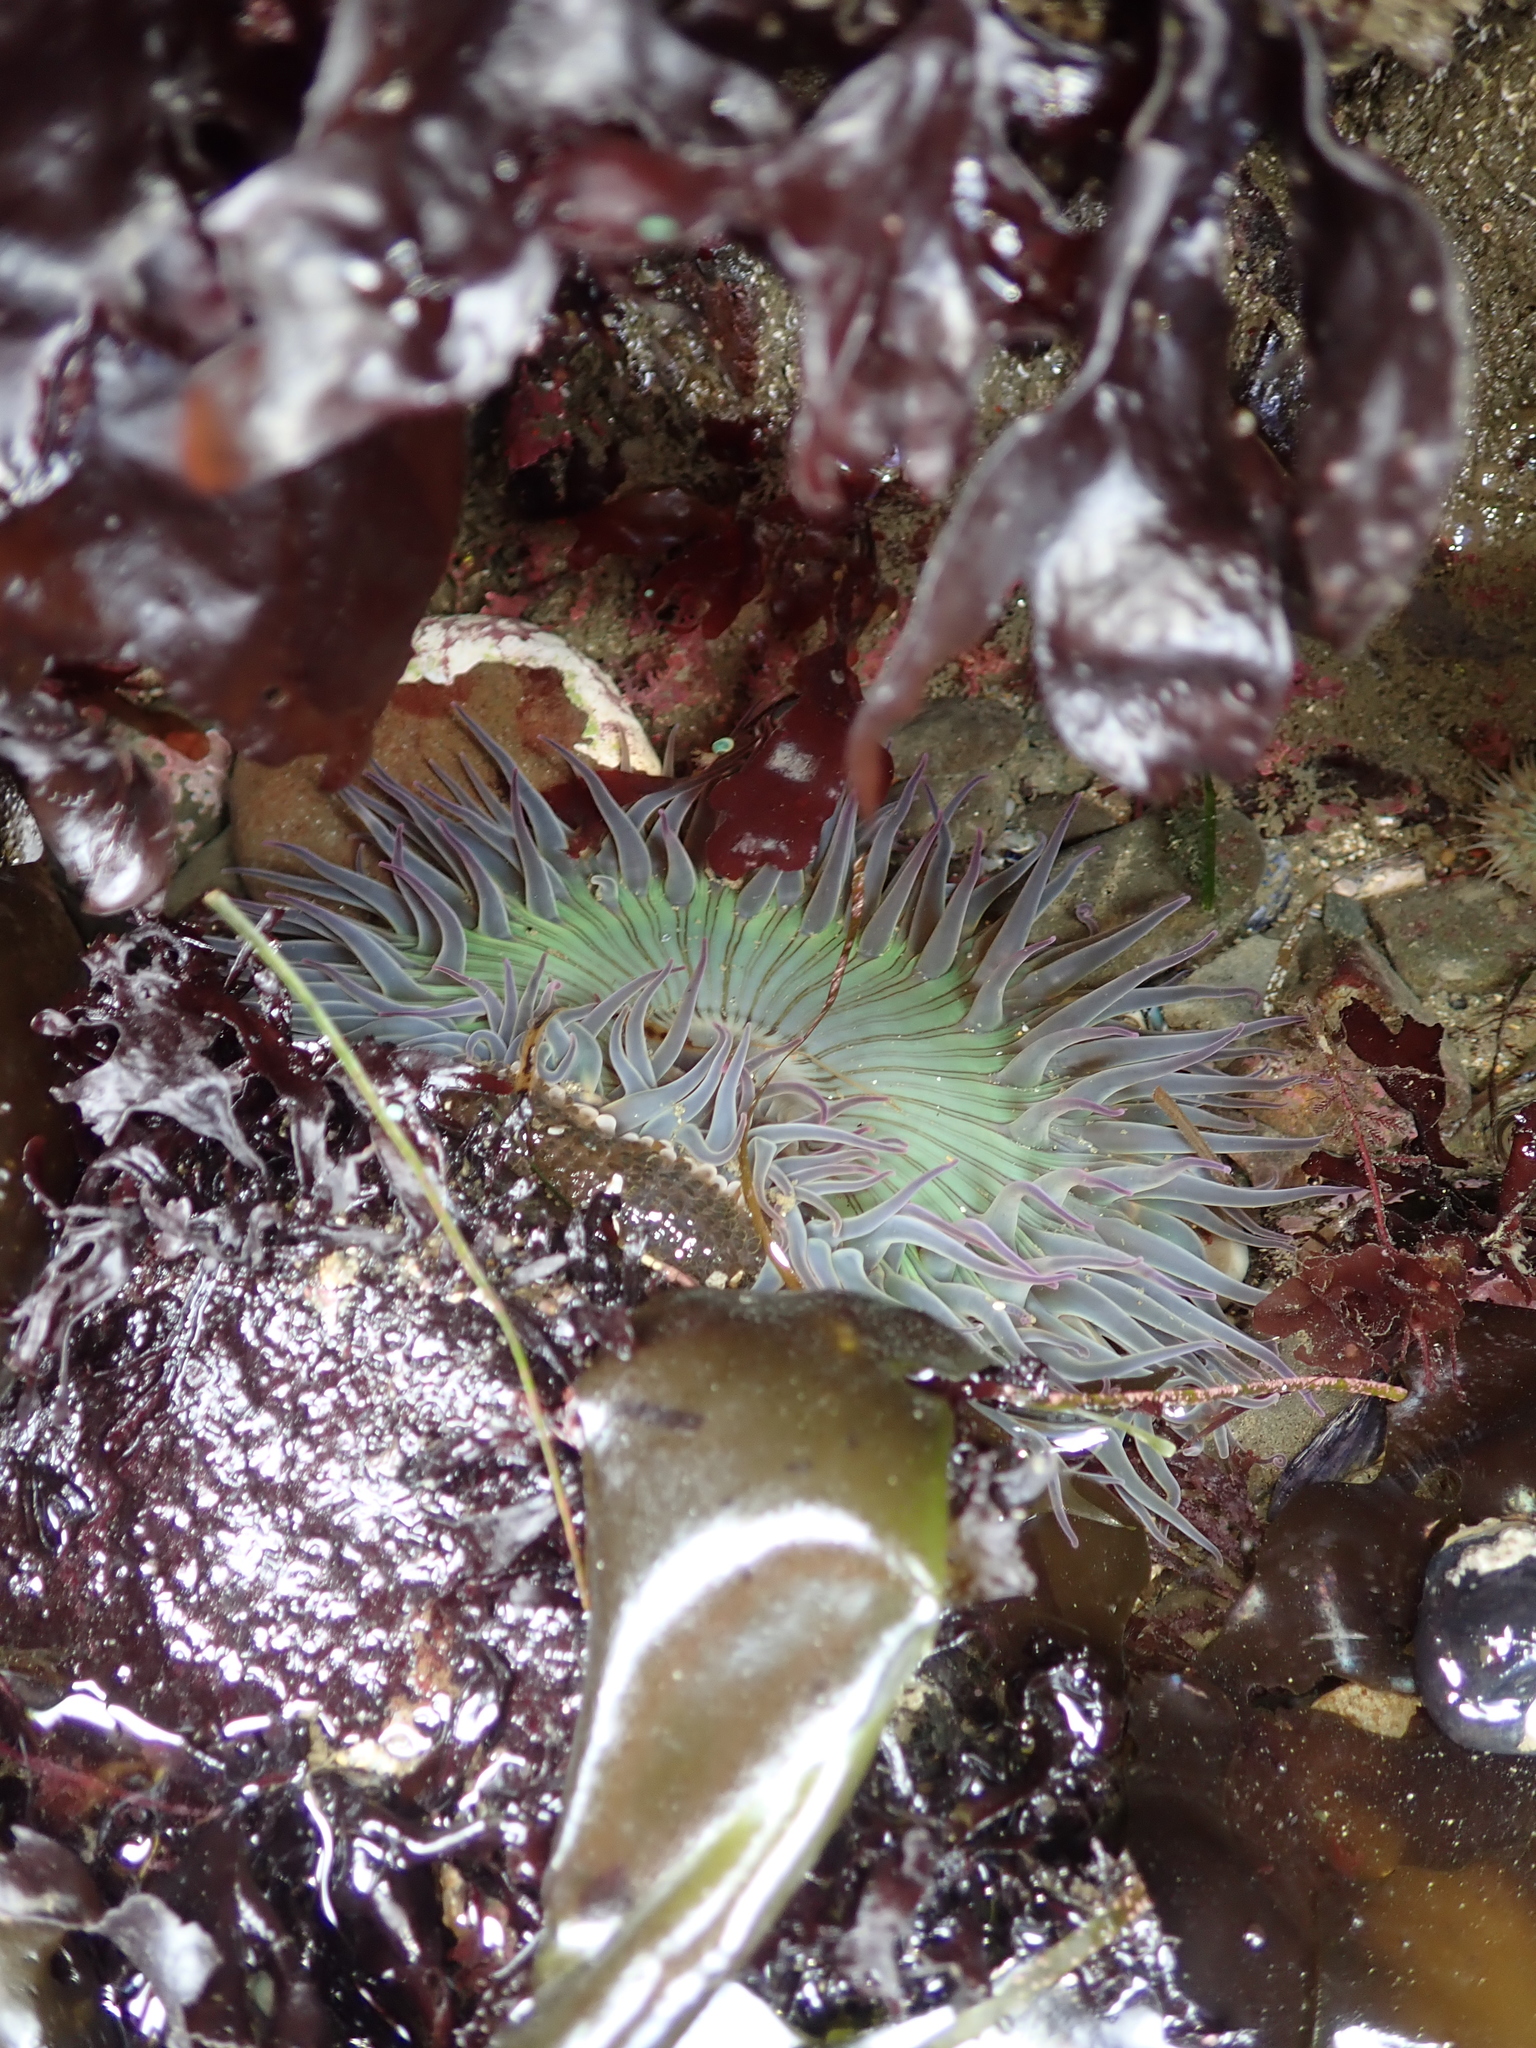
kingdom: Animalia
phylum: Cnidaria
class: Anthozoa
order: Actiniaria
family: Actiniidae
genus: Anthopleura
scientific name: Anthopleura sola
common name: Sun anemone
